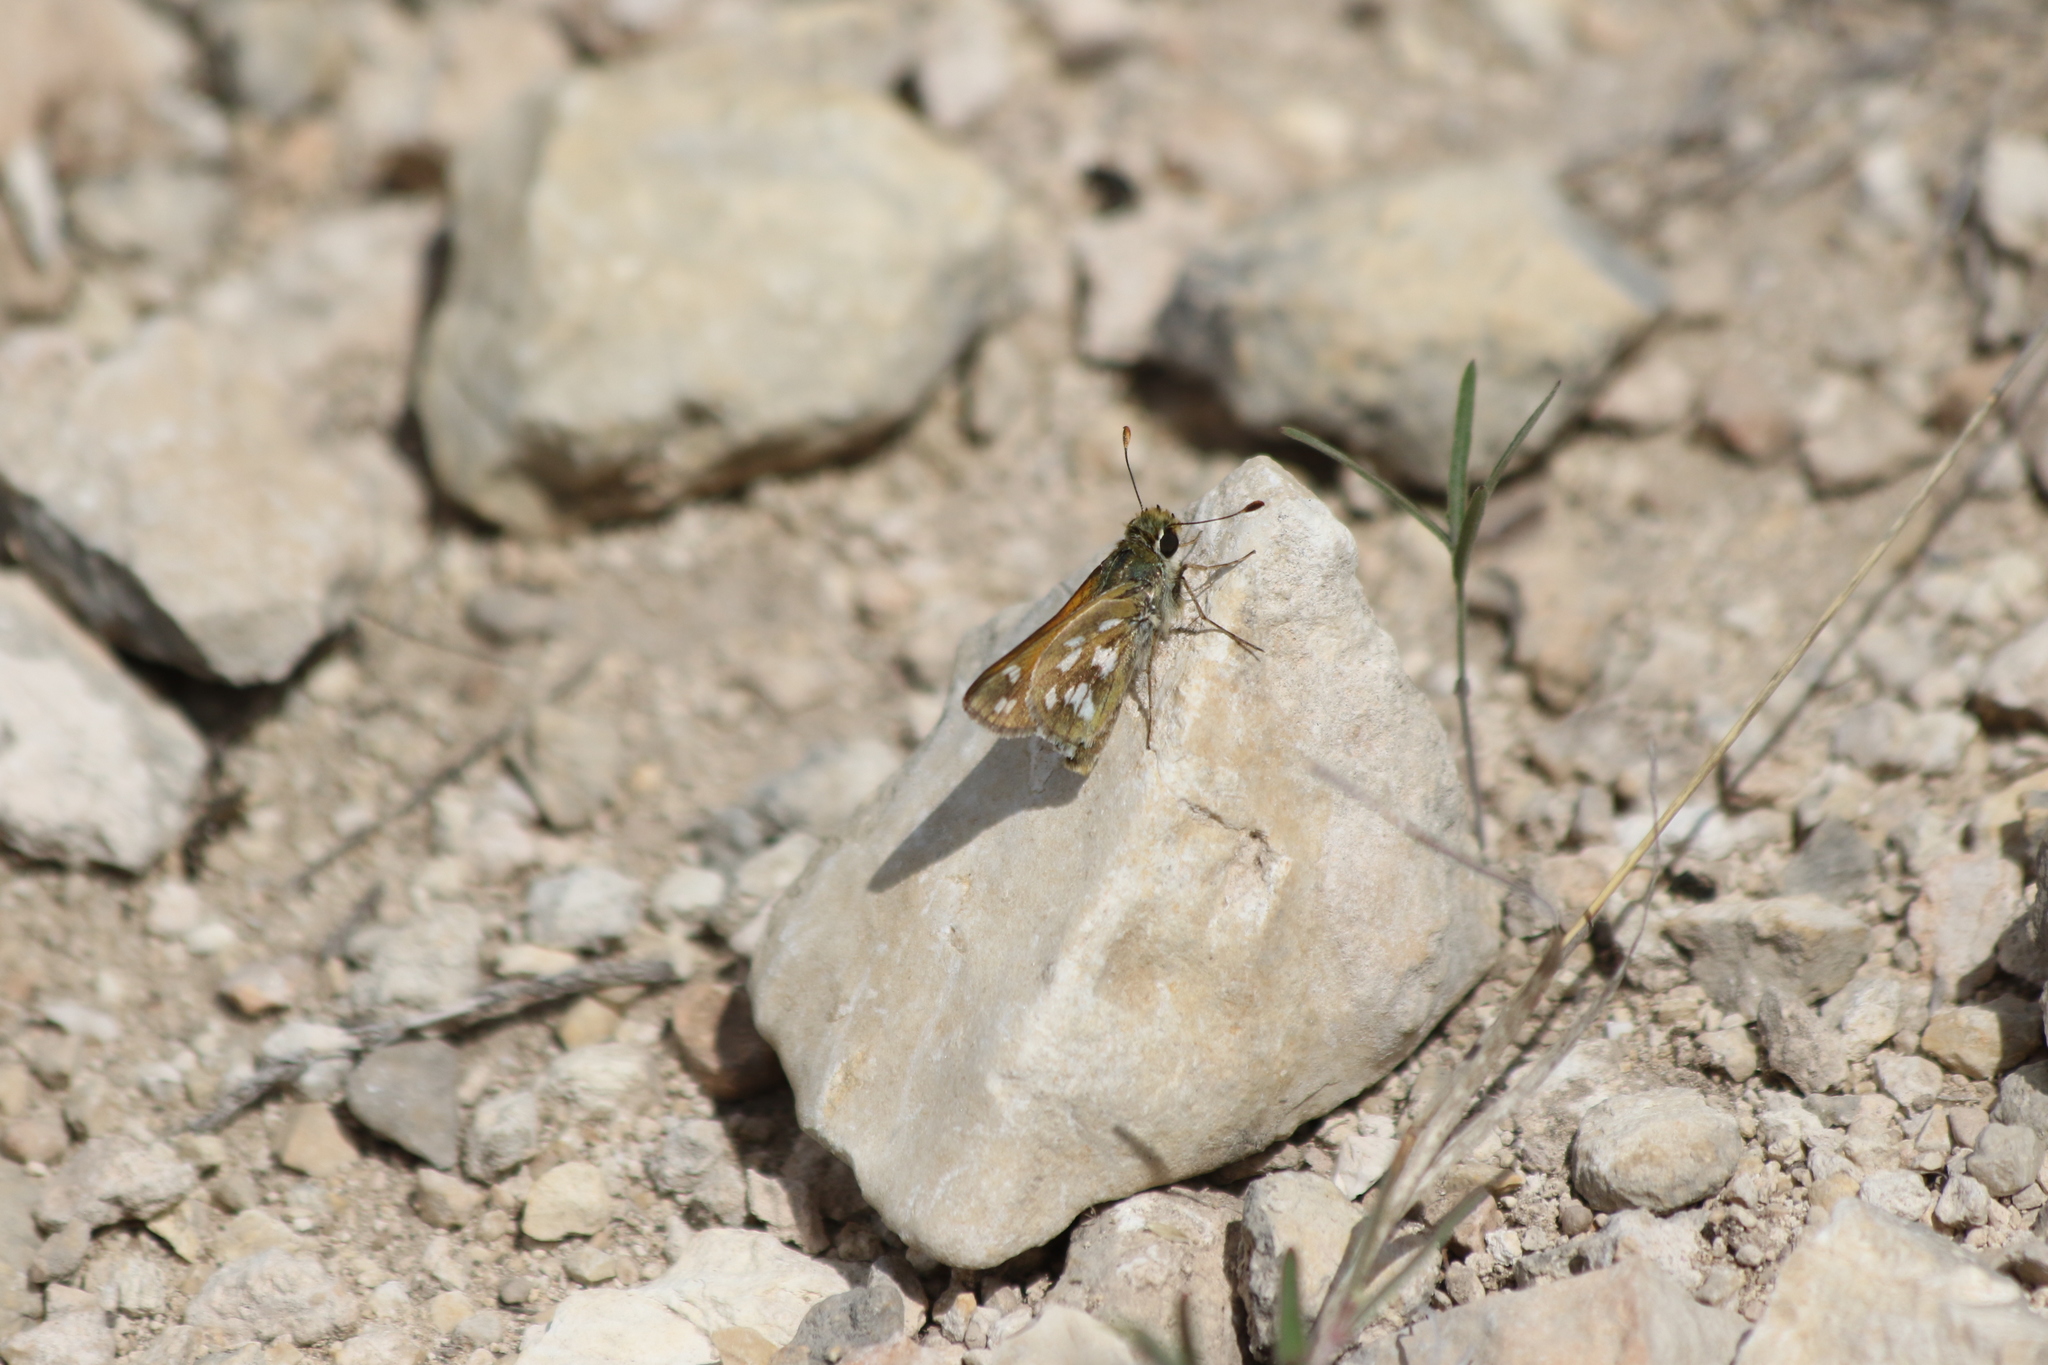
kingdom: Animalia
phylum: Arthropoda
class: Insecta
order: Lepidoptera
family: Hesperiidae
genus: Hesperia
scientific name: Hesperia viridis
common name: Green skipper
